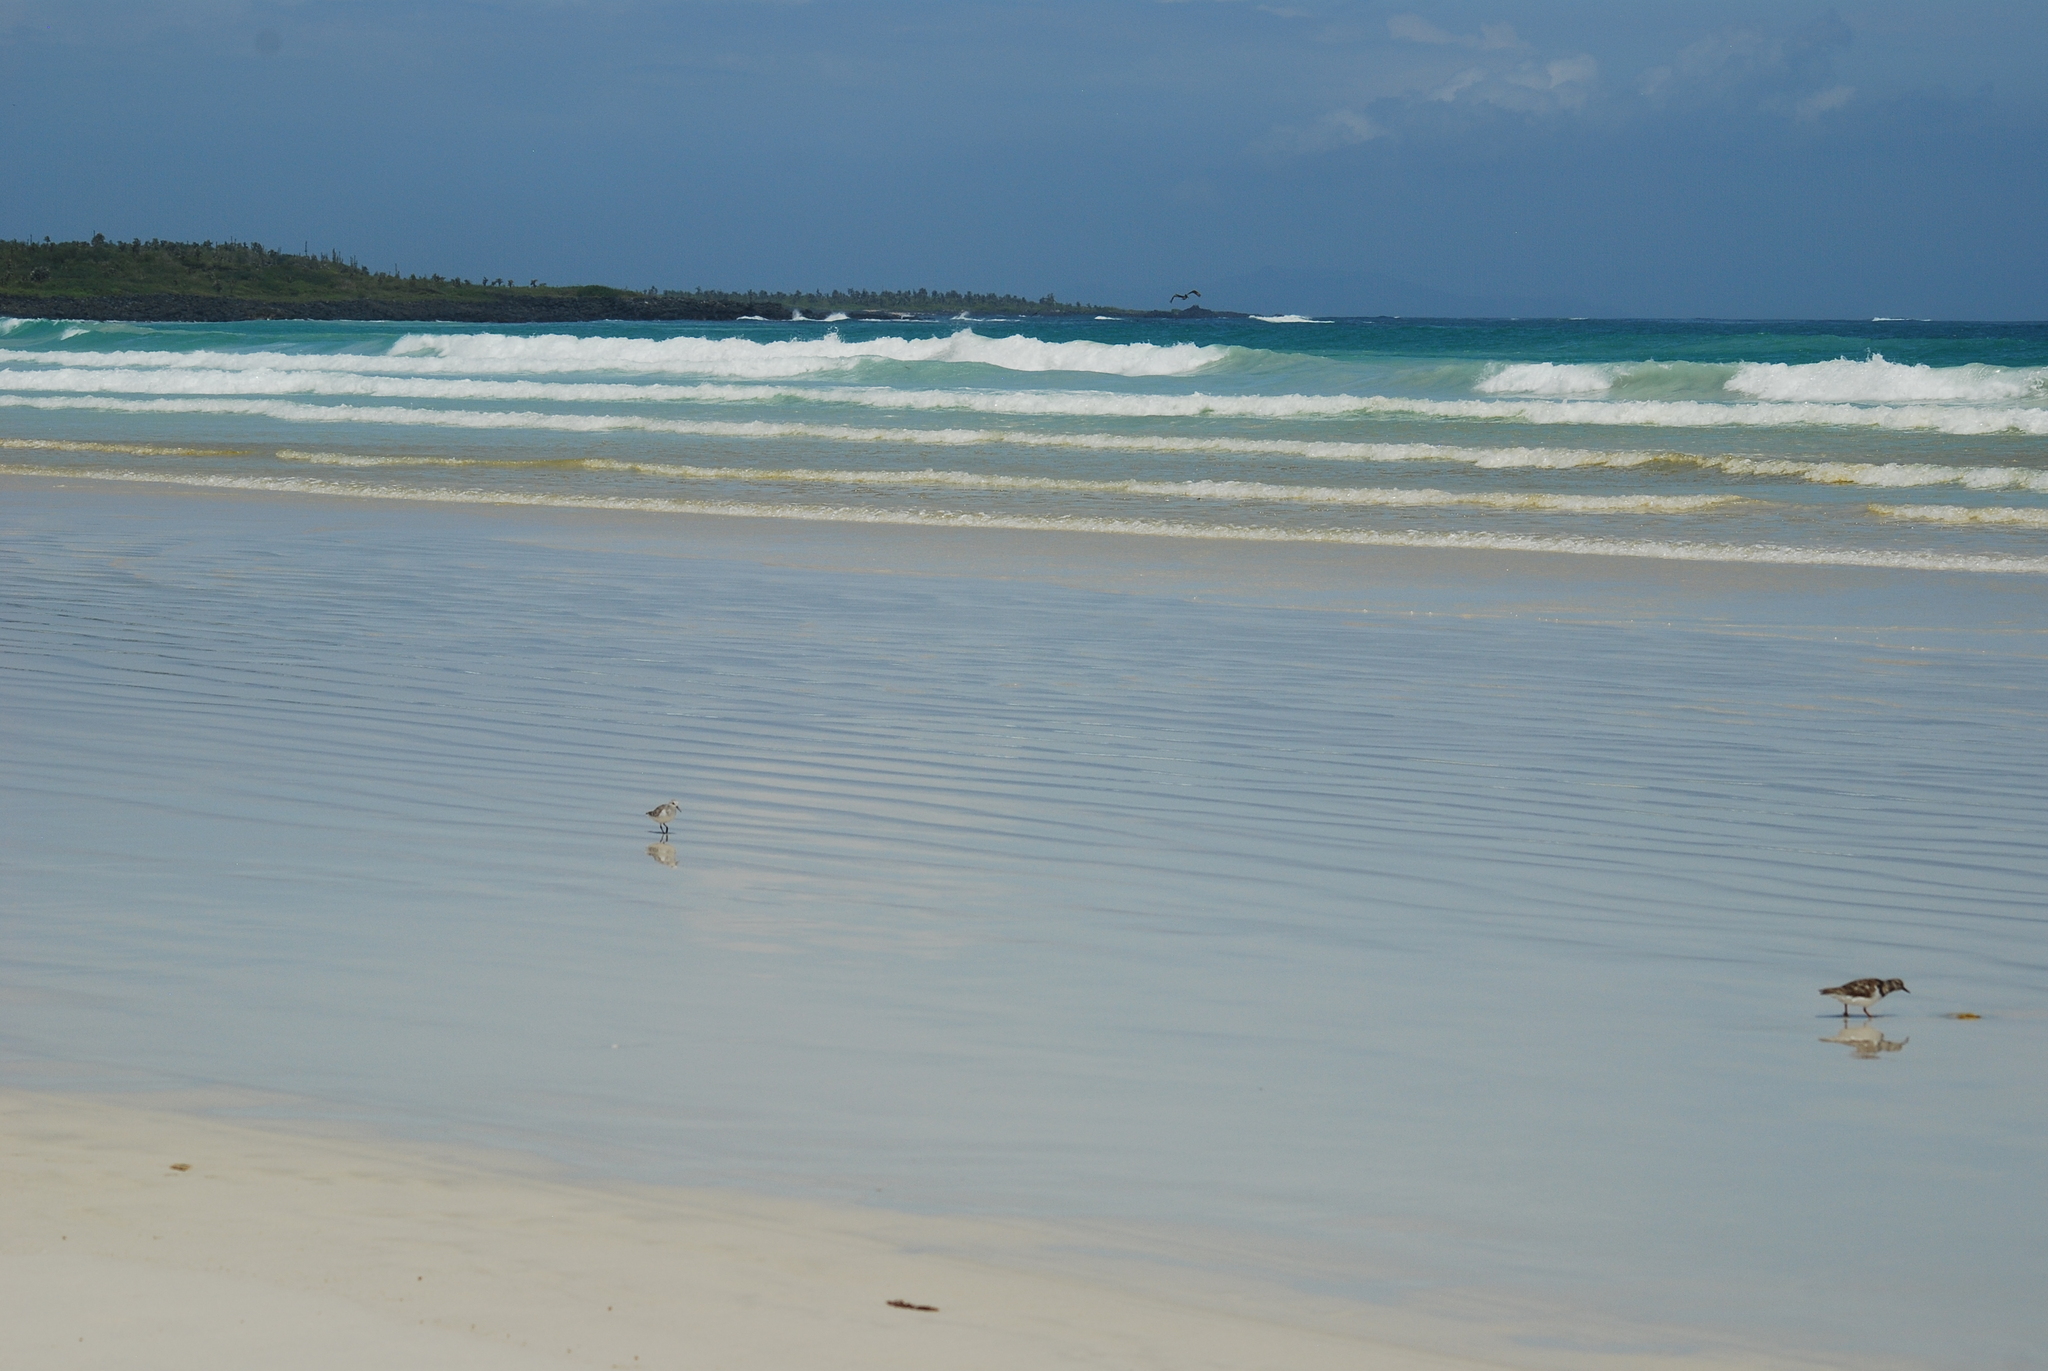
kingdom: Animalia
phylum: Chordata
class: Aves
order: Charadriiformes
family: Scolopacidae
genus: Arenaria
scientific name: Arenaria interpres
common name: Ruddy turnstone
